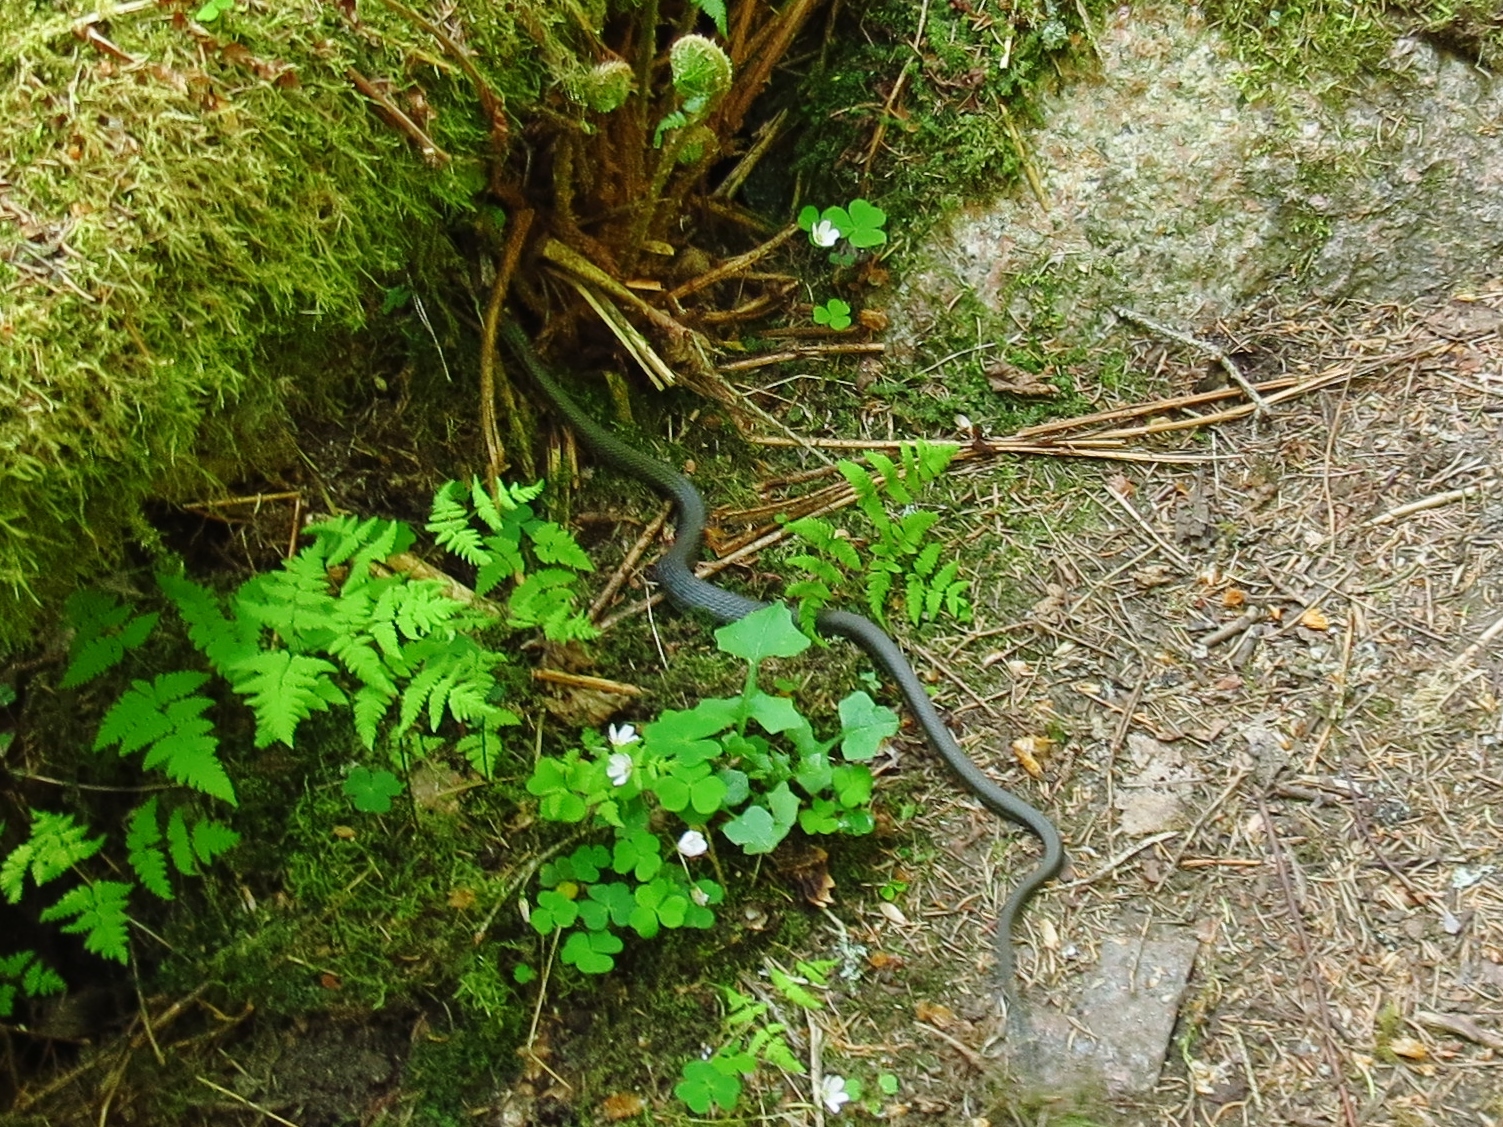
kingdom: Animalia
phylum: Chordata
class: Squamata
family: Colubridae
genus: Natrix
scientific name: Natrix natrix
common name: Grass snake
